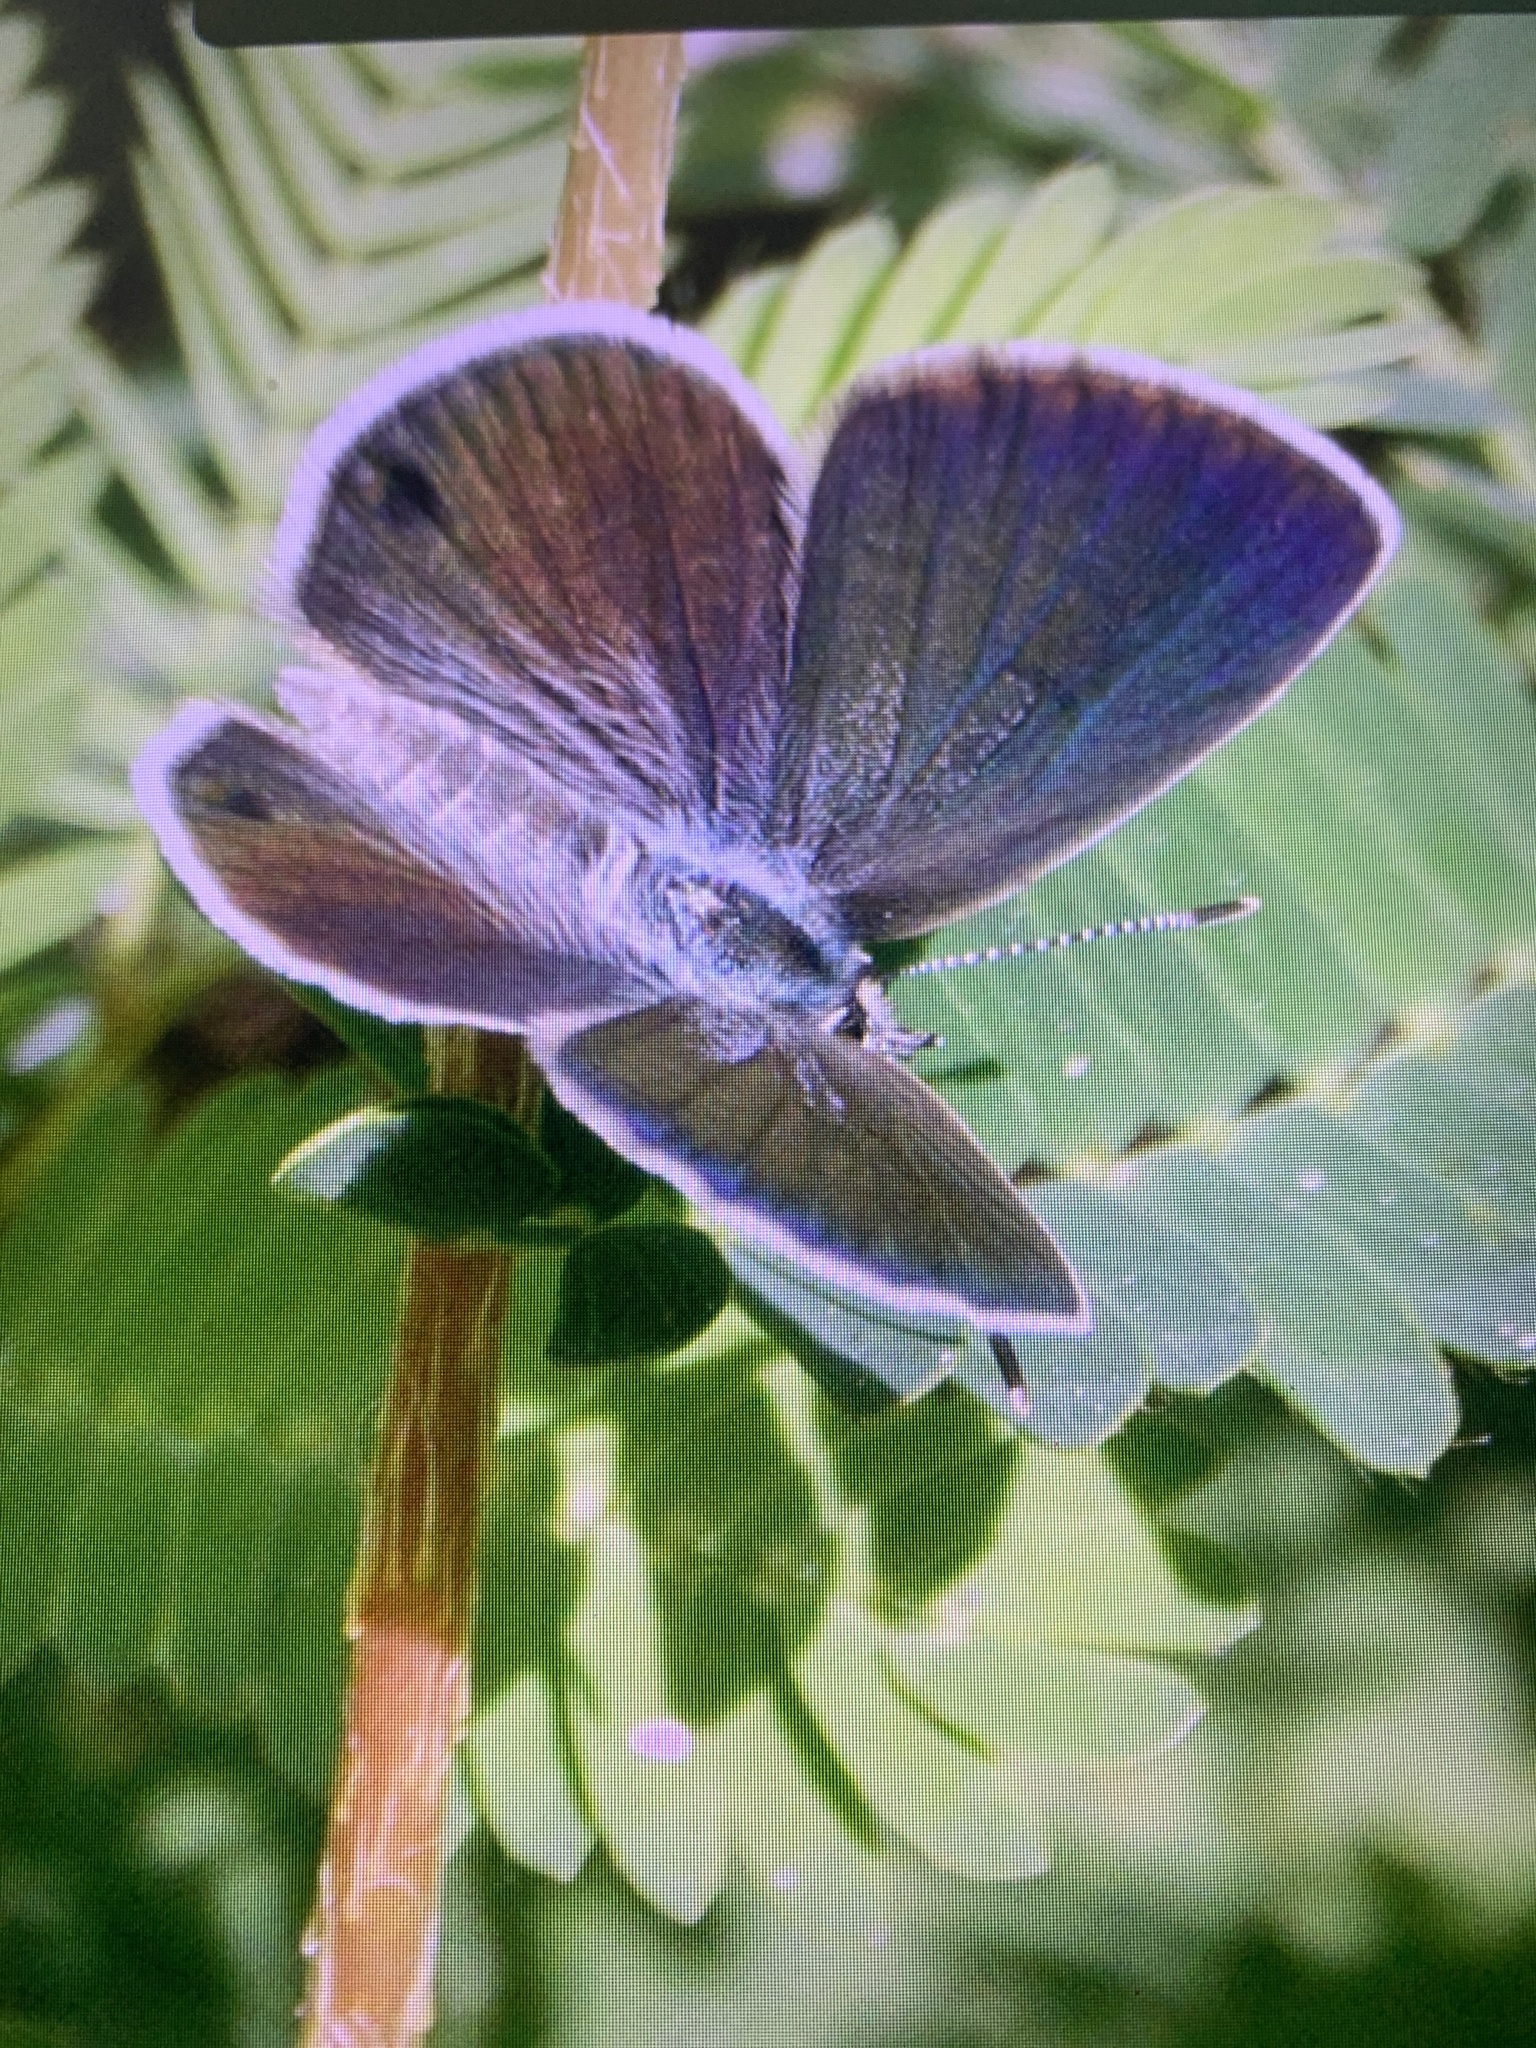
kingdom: Animalia
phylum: Arthropoda
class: Insecta
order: Lepidoptera
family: Lycaenidae
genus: Hemiargus
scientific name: Hemiargus ceraunus
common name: Ceraunus blue
